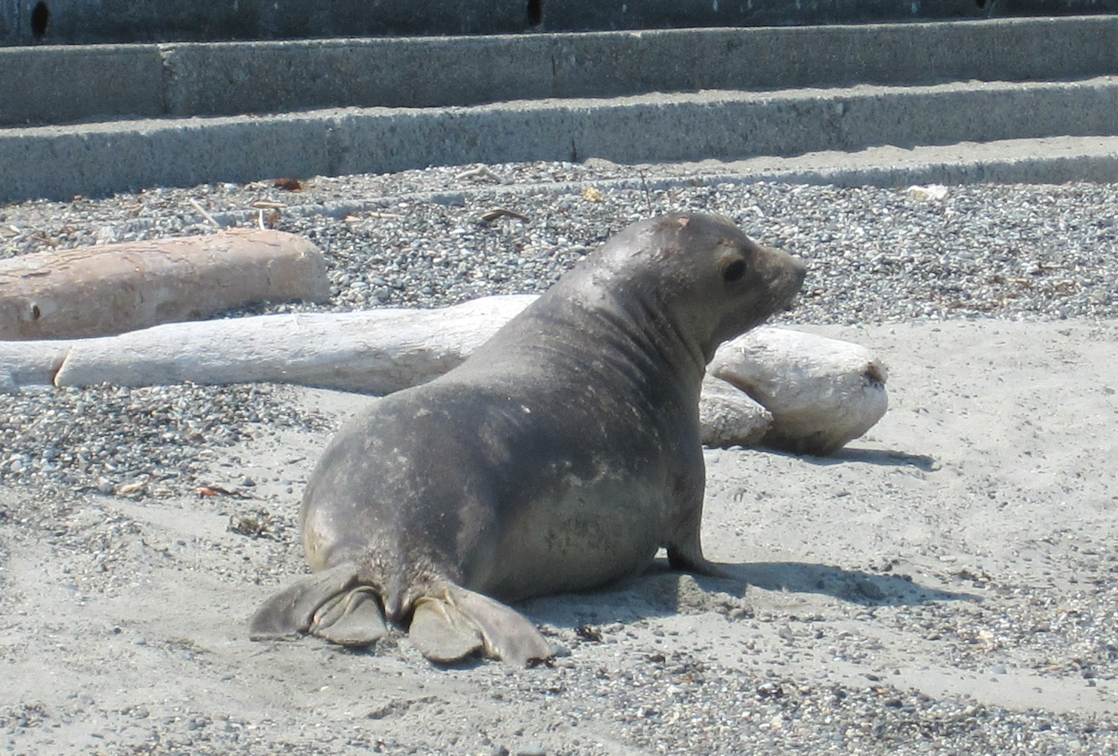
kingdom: Animalia
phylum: Chordata
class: Mammalia
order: Carnivora
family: Phocidae
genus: Mirounga
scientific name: Mirounga angustirostris
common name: Northern elephant seal
